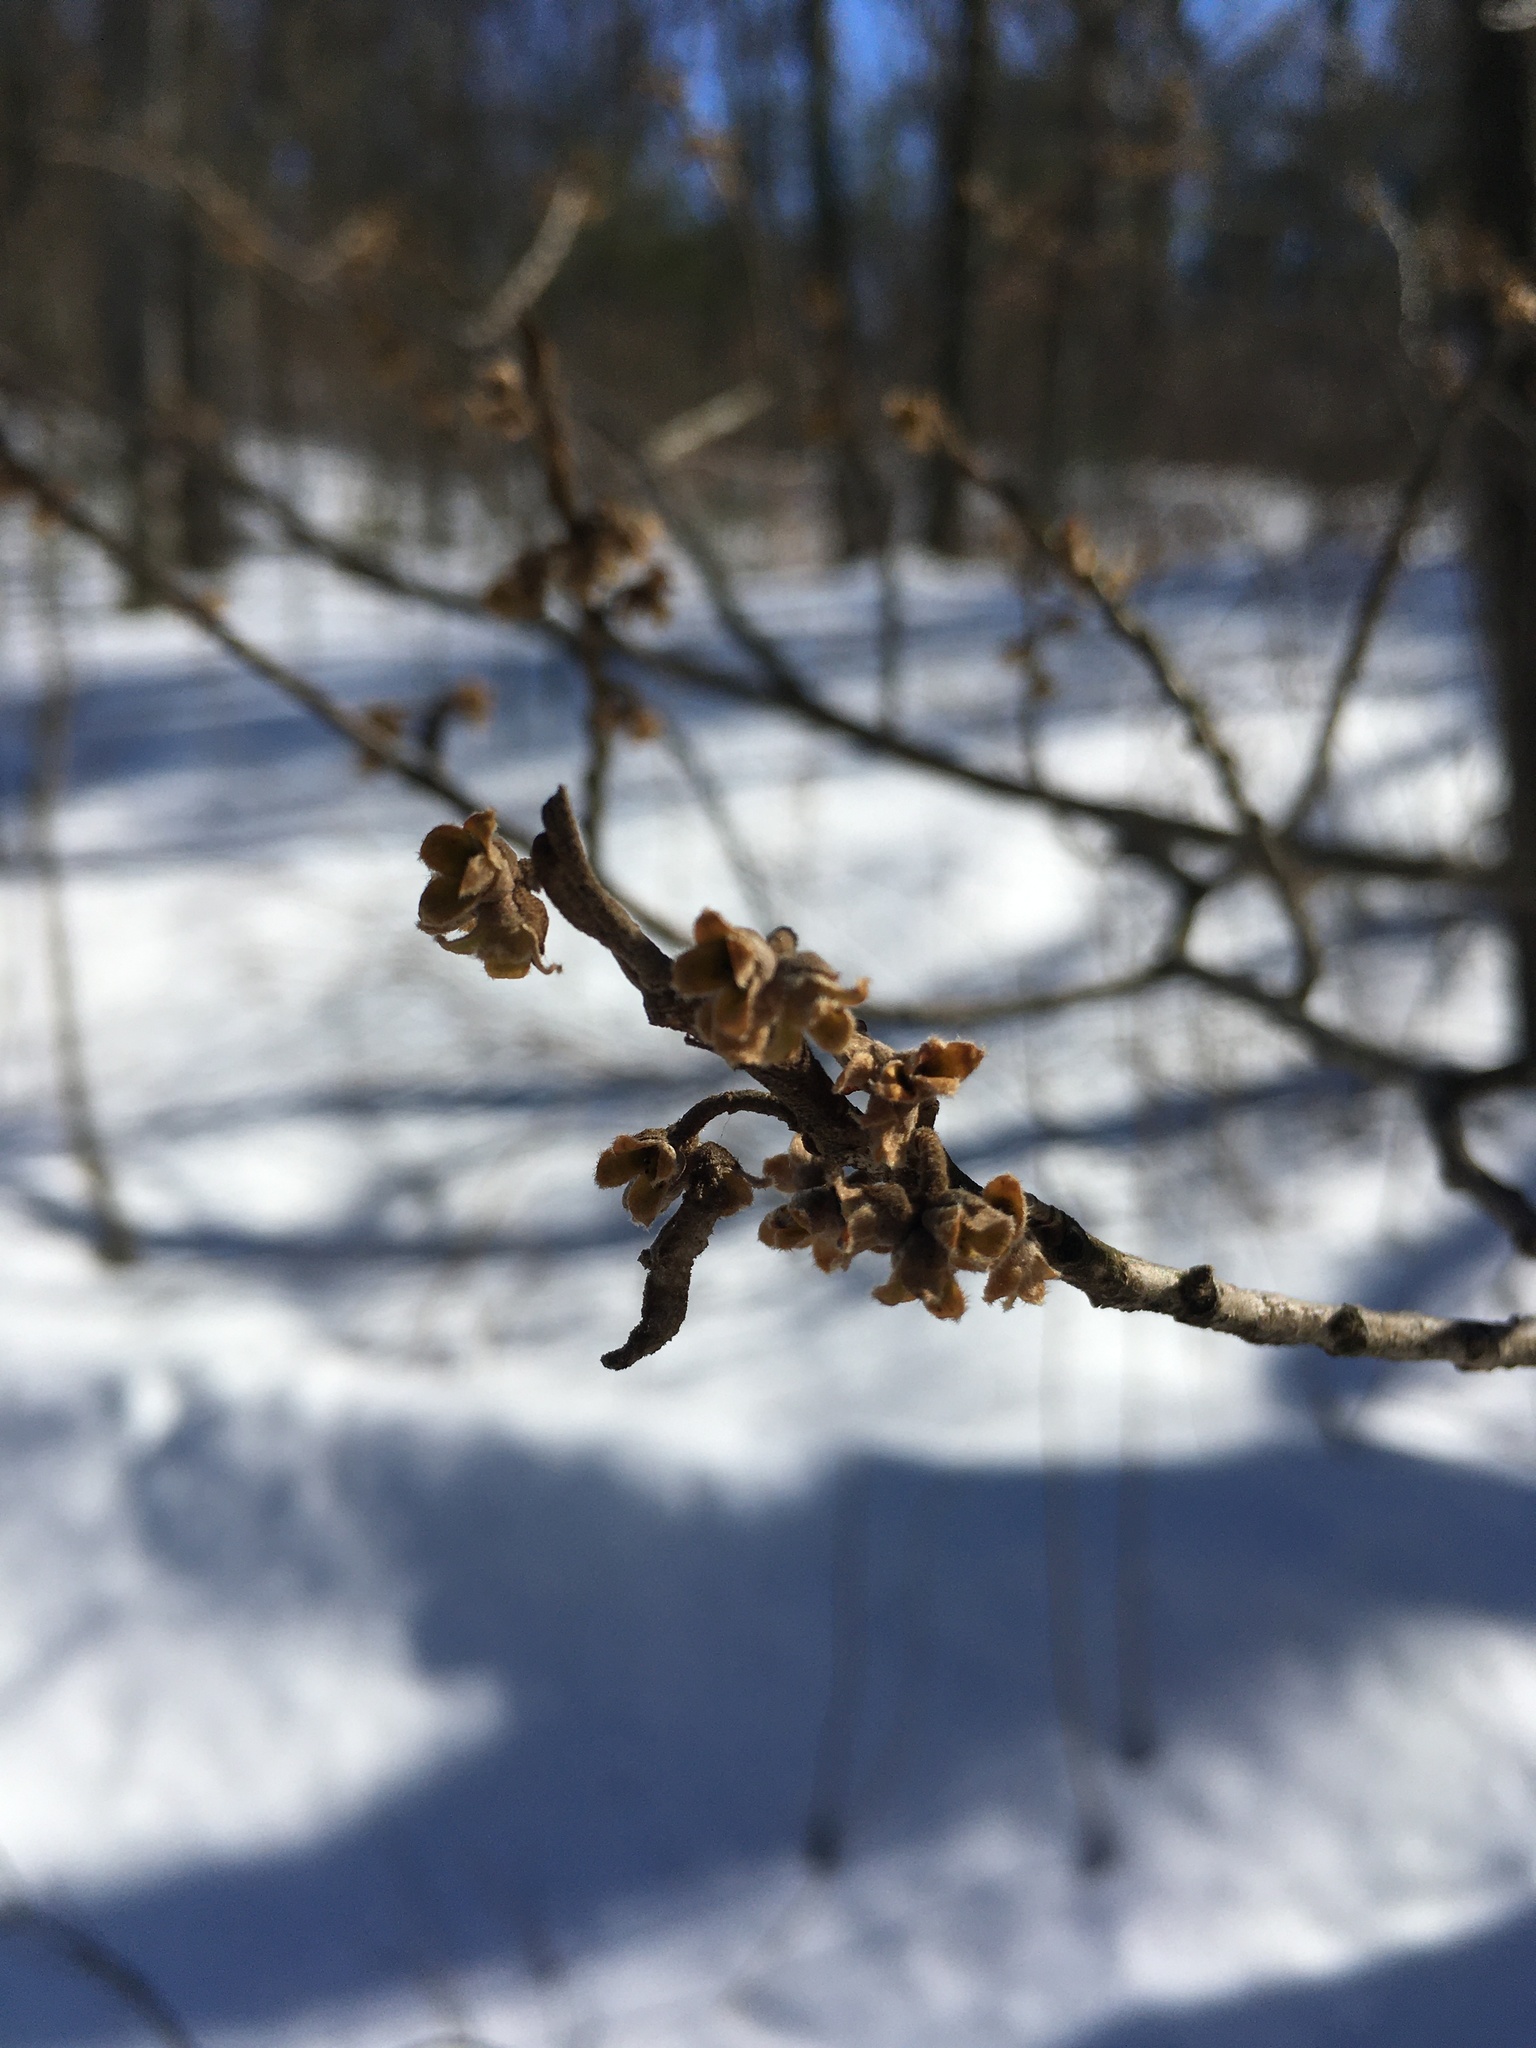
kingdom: Plantae
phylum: Tracheophyta
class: Magnoliopsida
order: Saxifragales
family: Hamamelidaceae
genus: Hamamelis
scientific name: Hamamelis virginiana
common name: Witch-hazel
